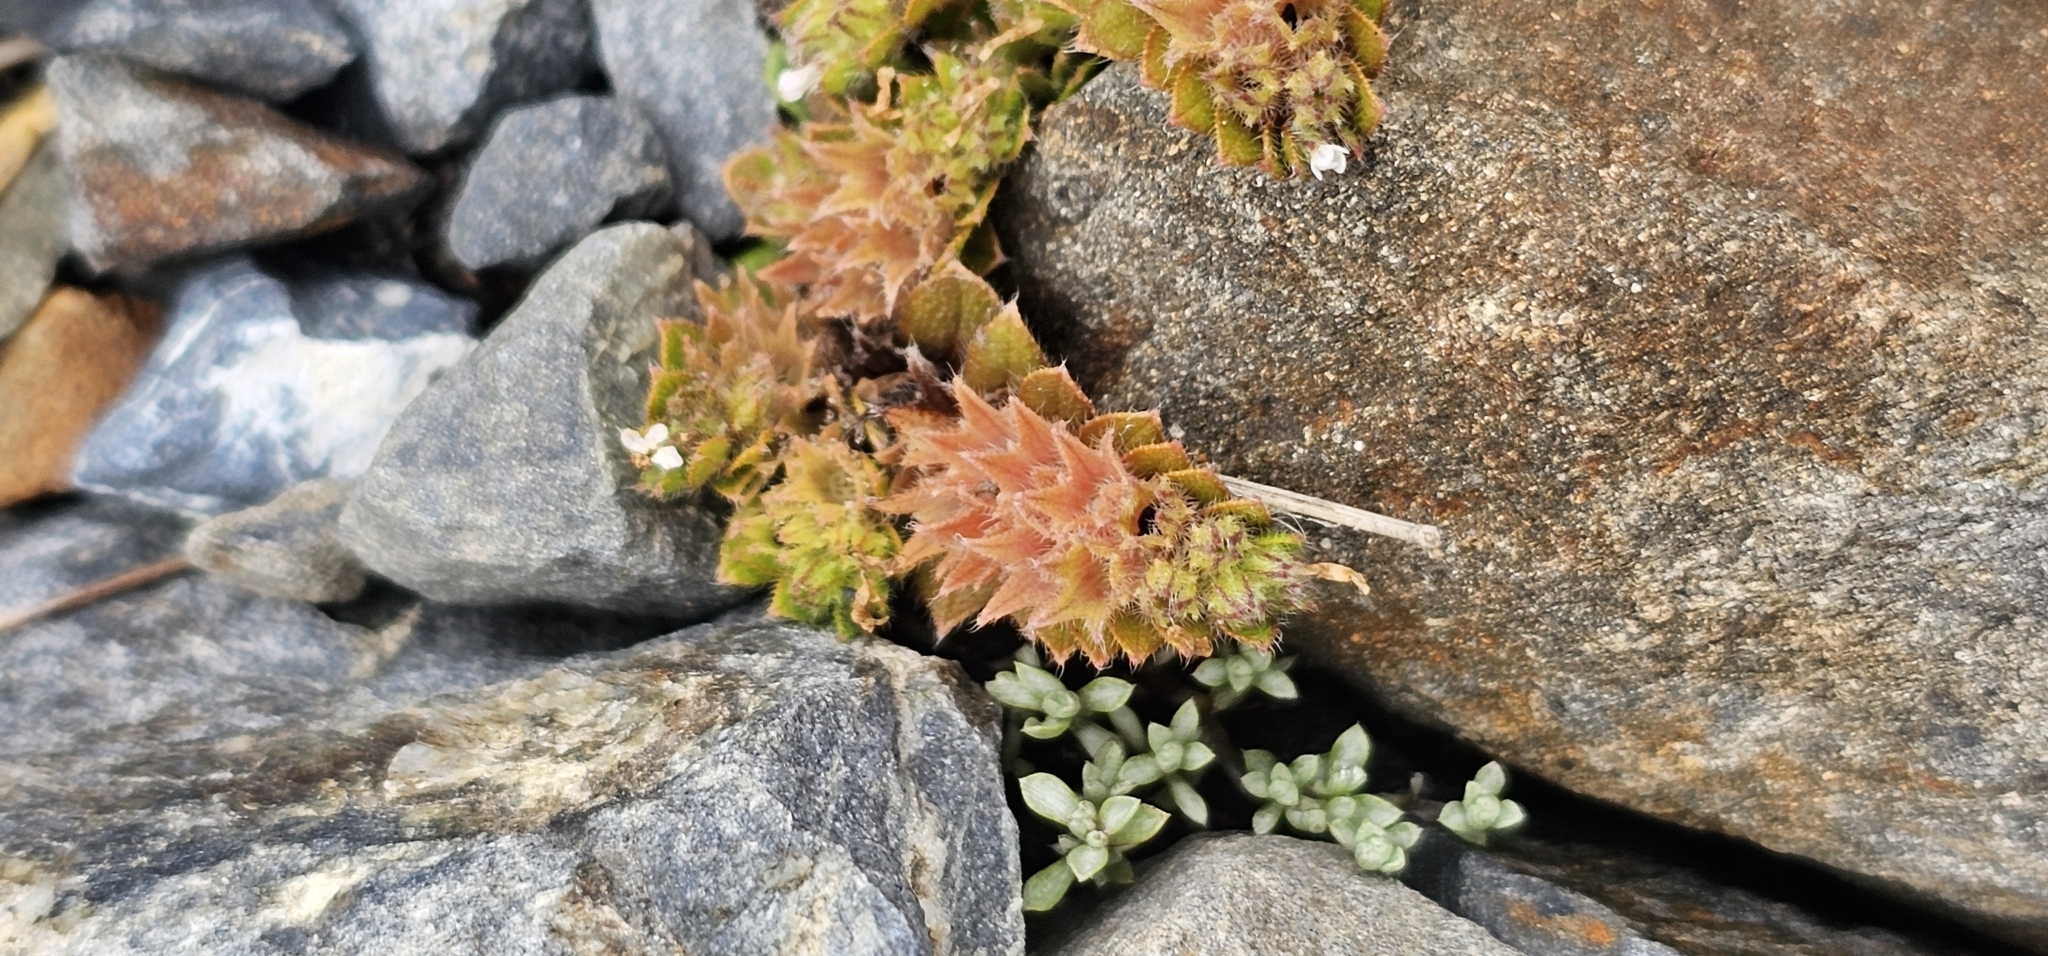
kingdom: Plantae
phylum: Tracheophyta
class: Magnoliopsida
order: Boraginales
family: Boraginaceae
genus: Myosotis
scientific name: Myosotis antarctica
